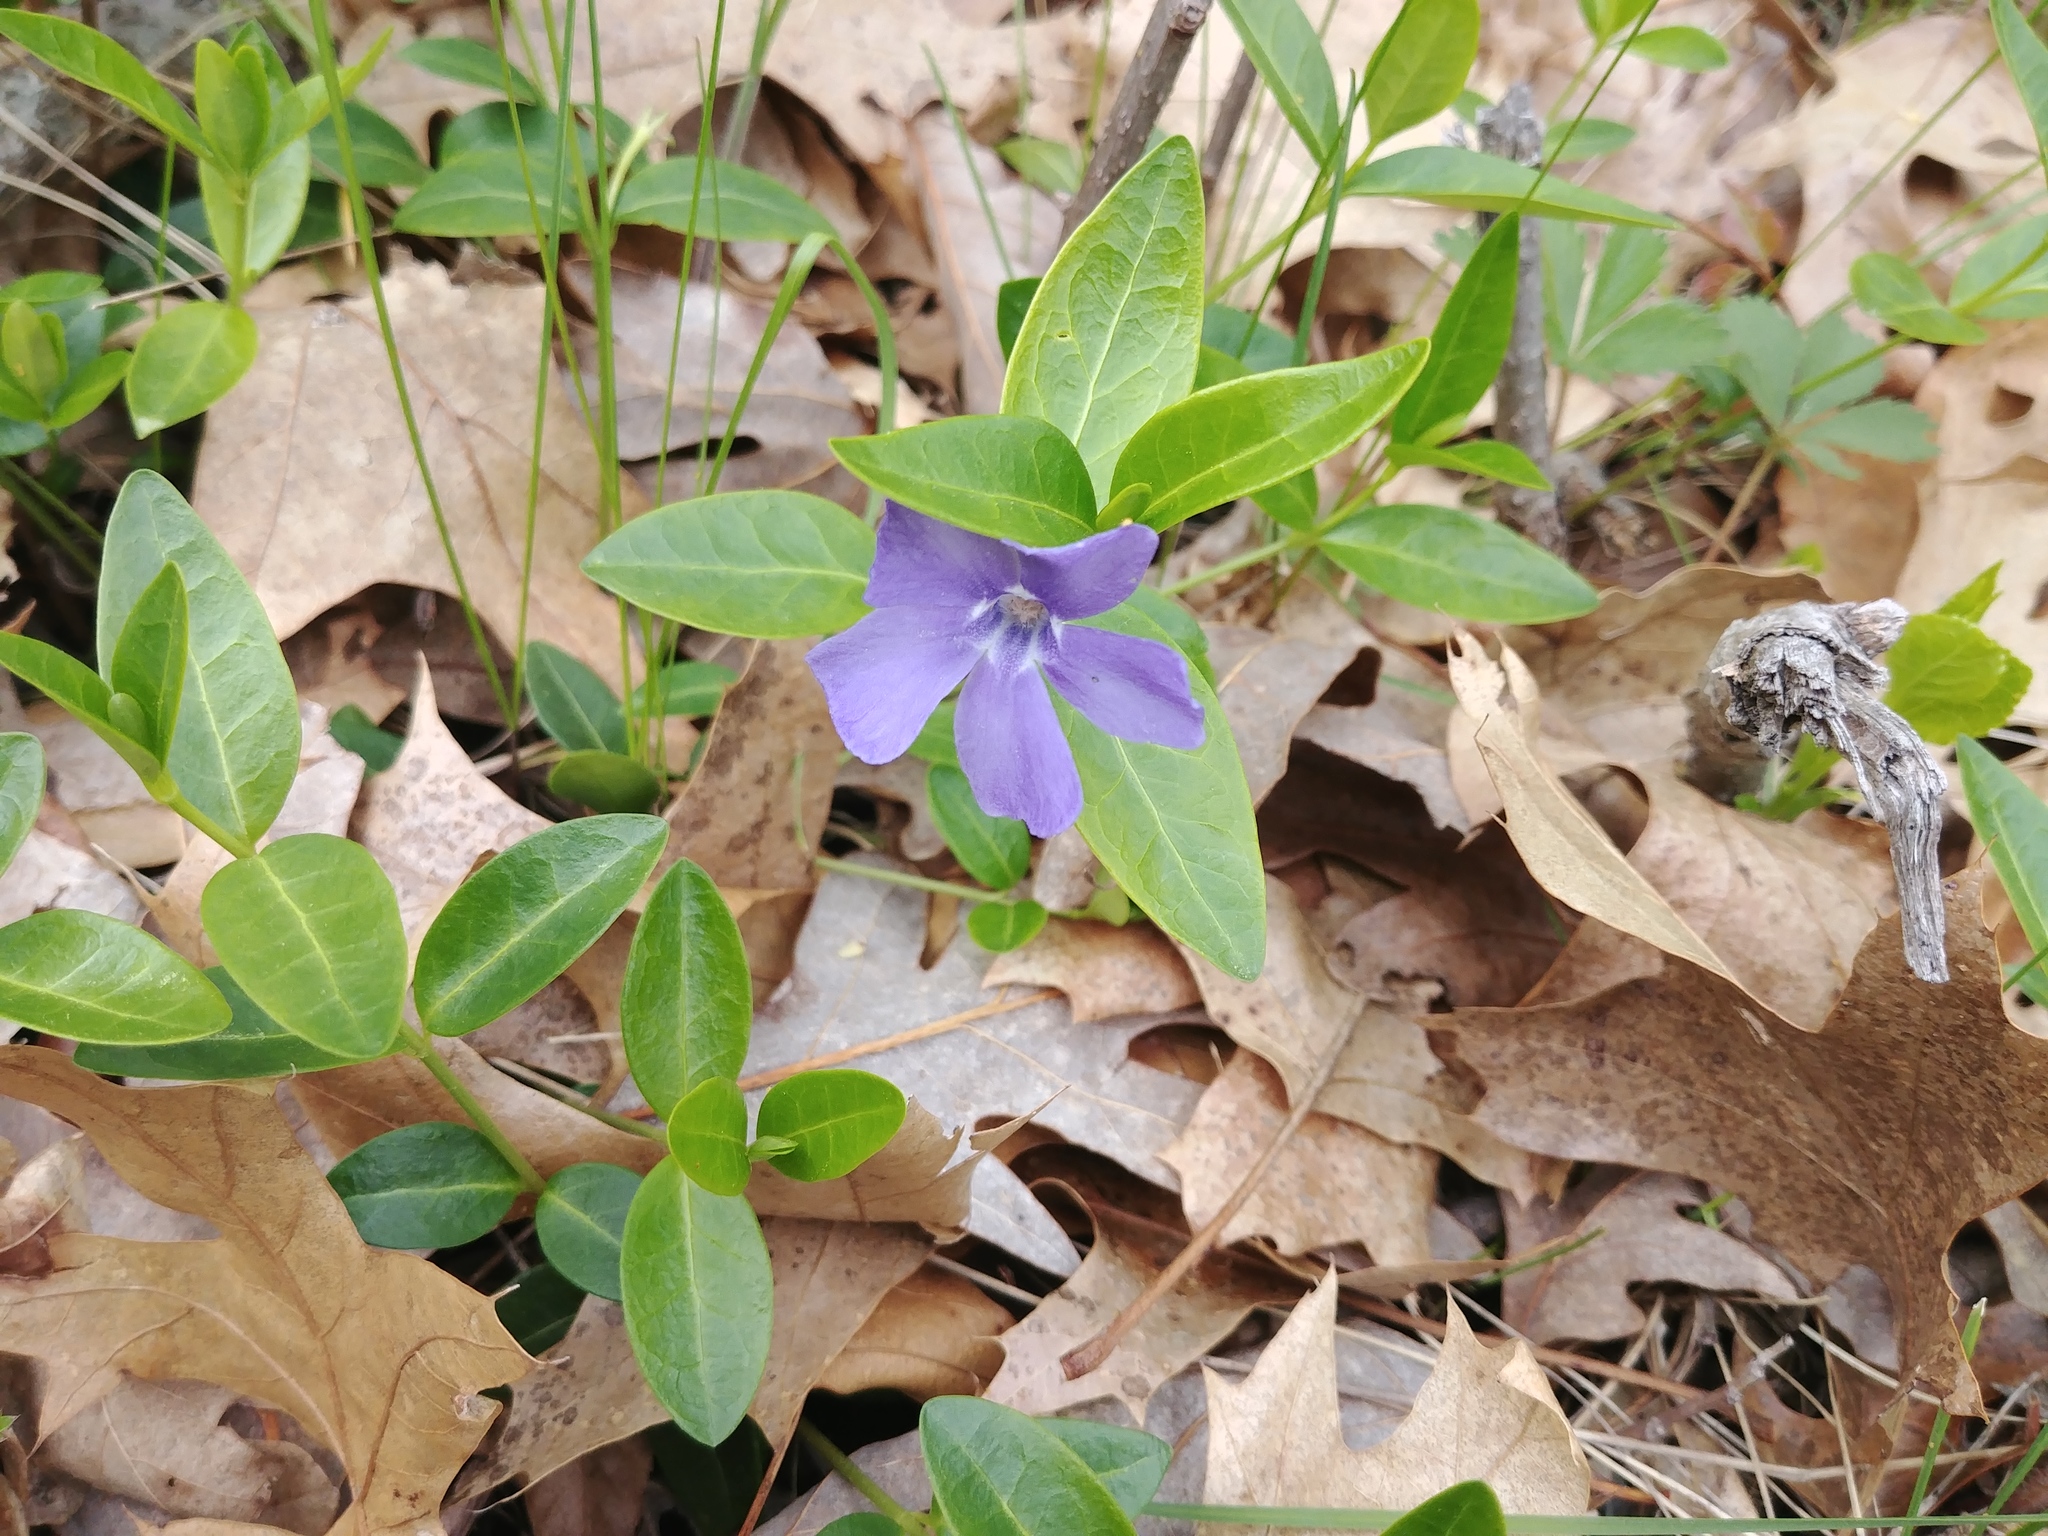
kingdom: Plantae
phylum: Tracheophyta
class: Magnoliopsida
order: Gentianales
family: Apocynaceae
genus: Vinca
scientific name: Vinca minor
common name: Lesser periwinkle
